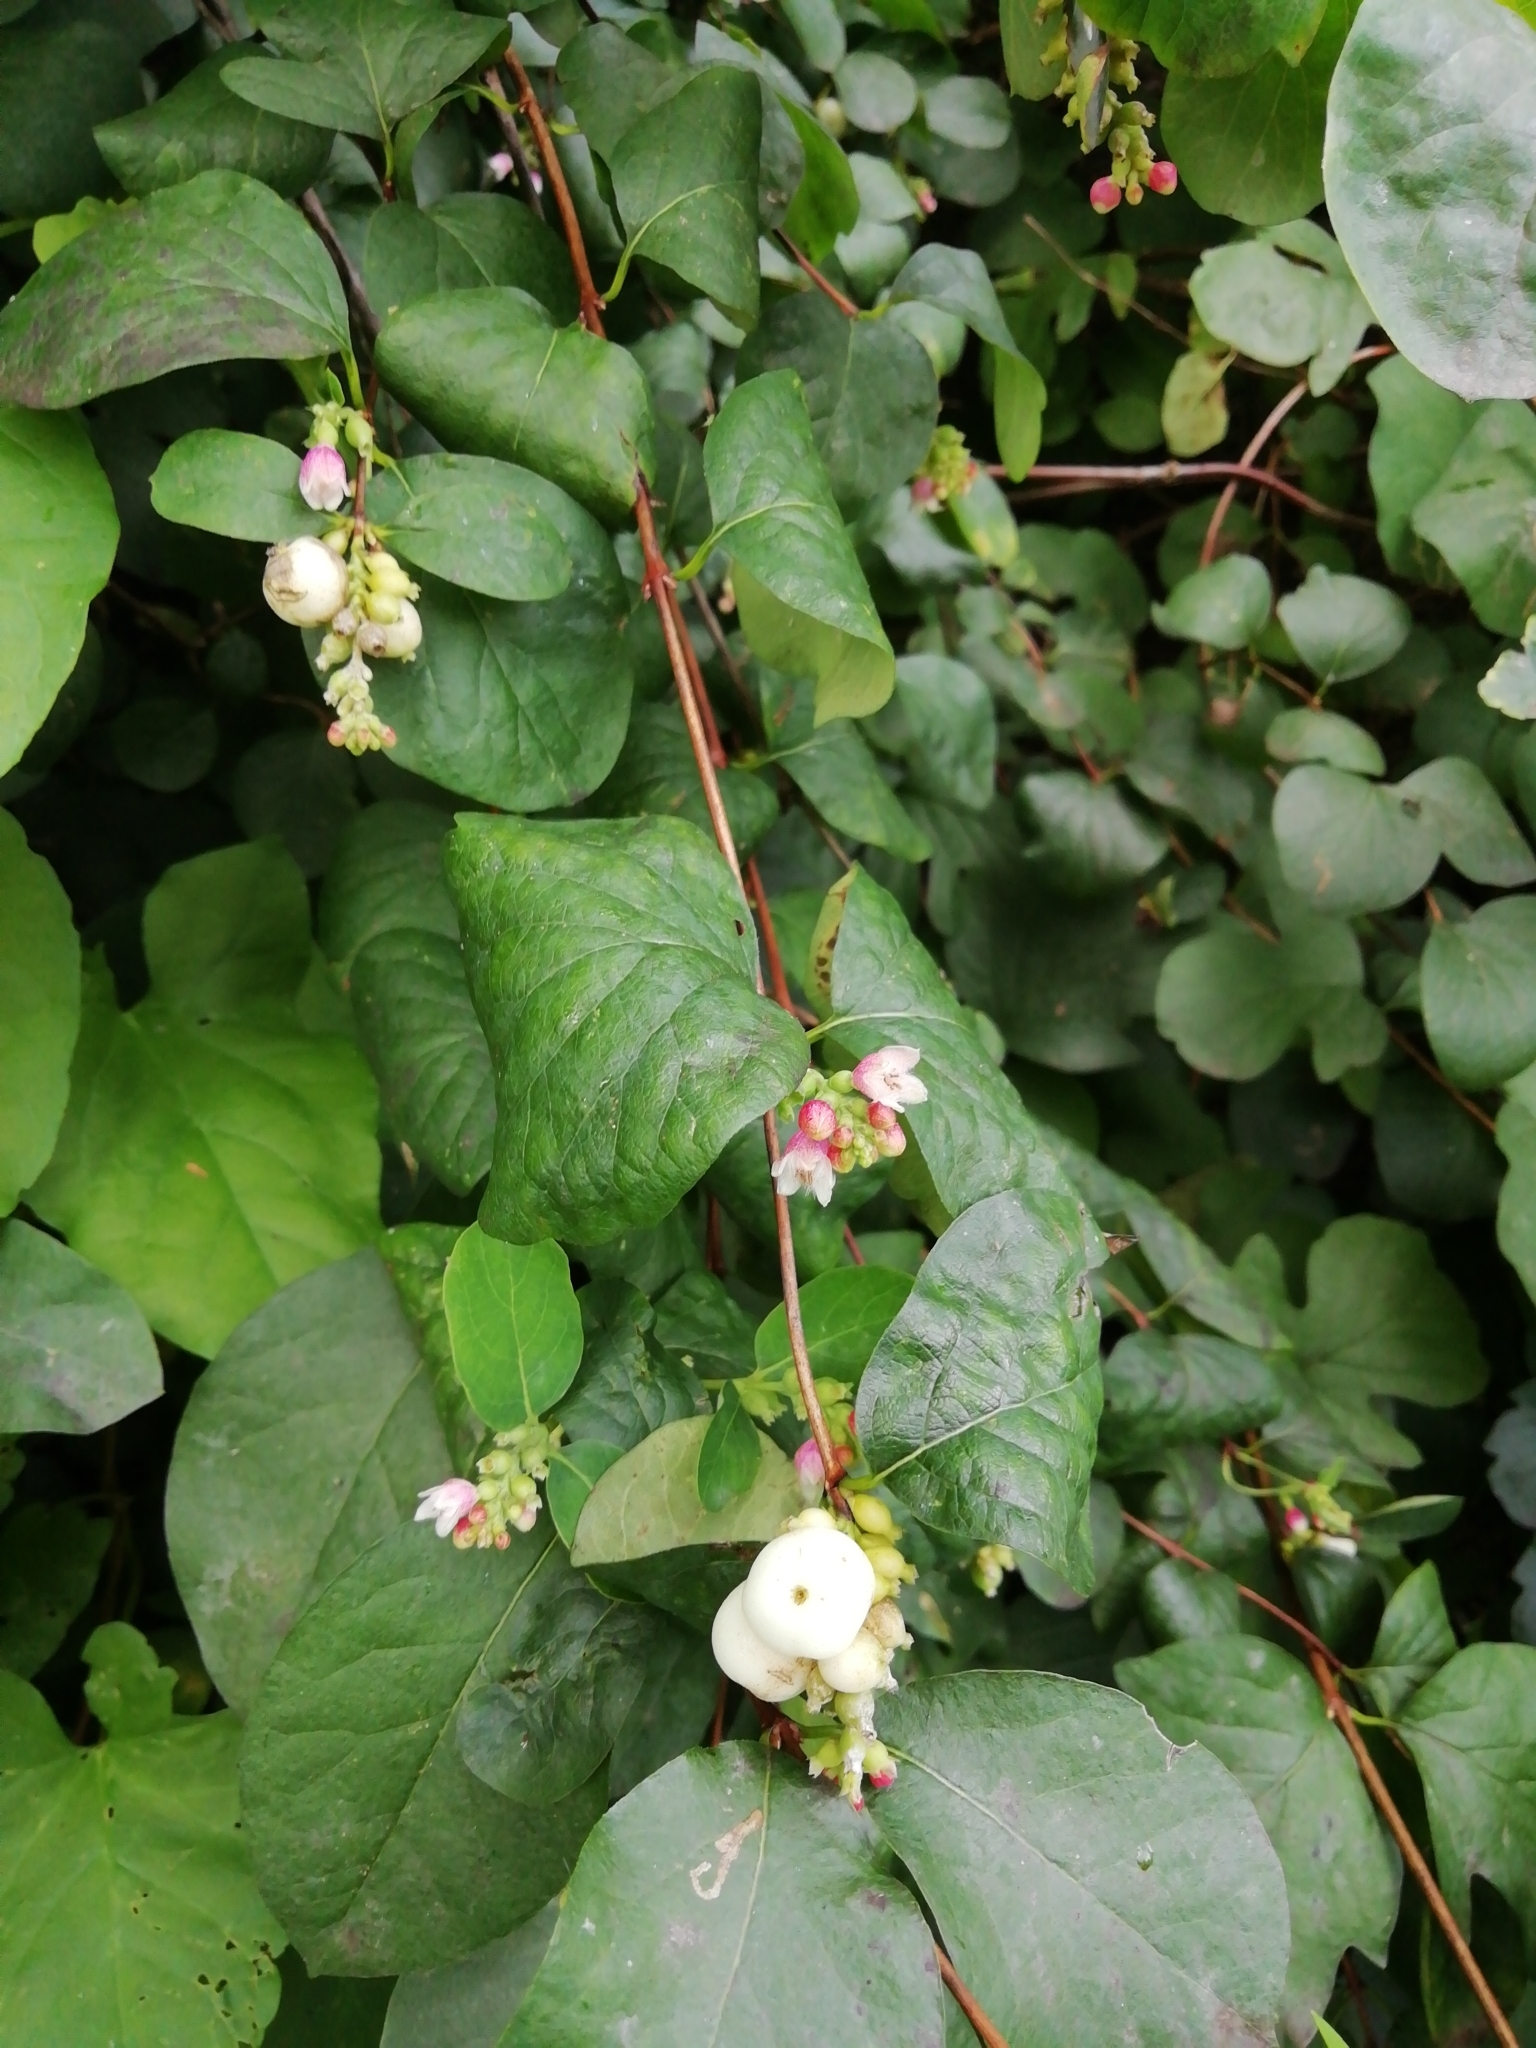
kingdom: Plantae
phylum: Tracheophyta
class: Magnoliopsida
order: Dipsacales
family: Caprifoliaceae
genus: Symphoricarpos
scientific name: Symphoricarpos albus
